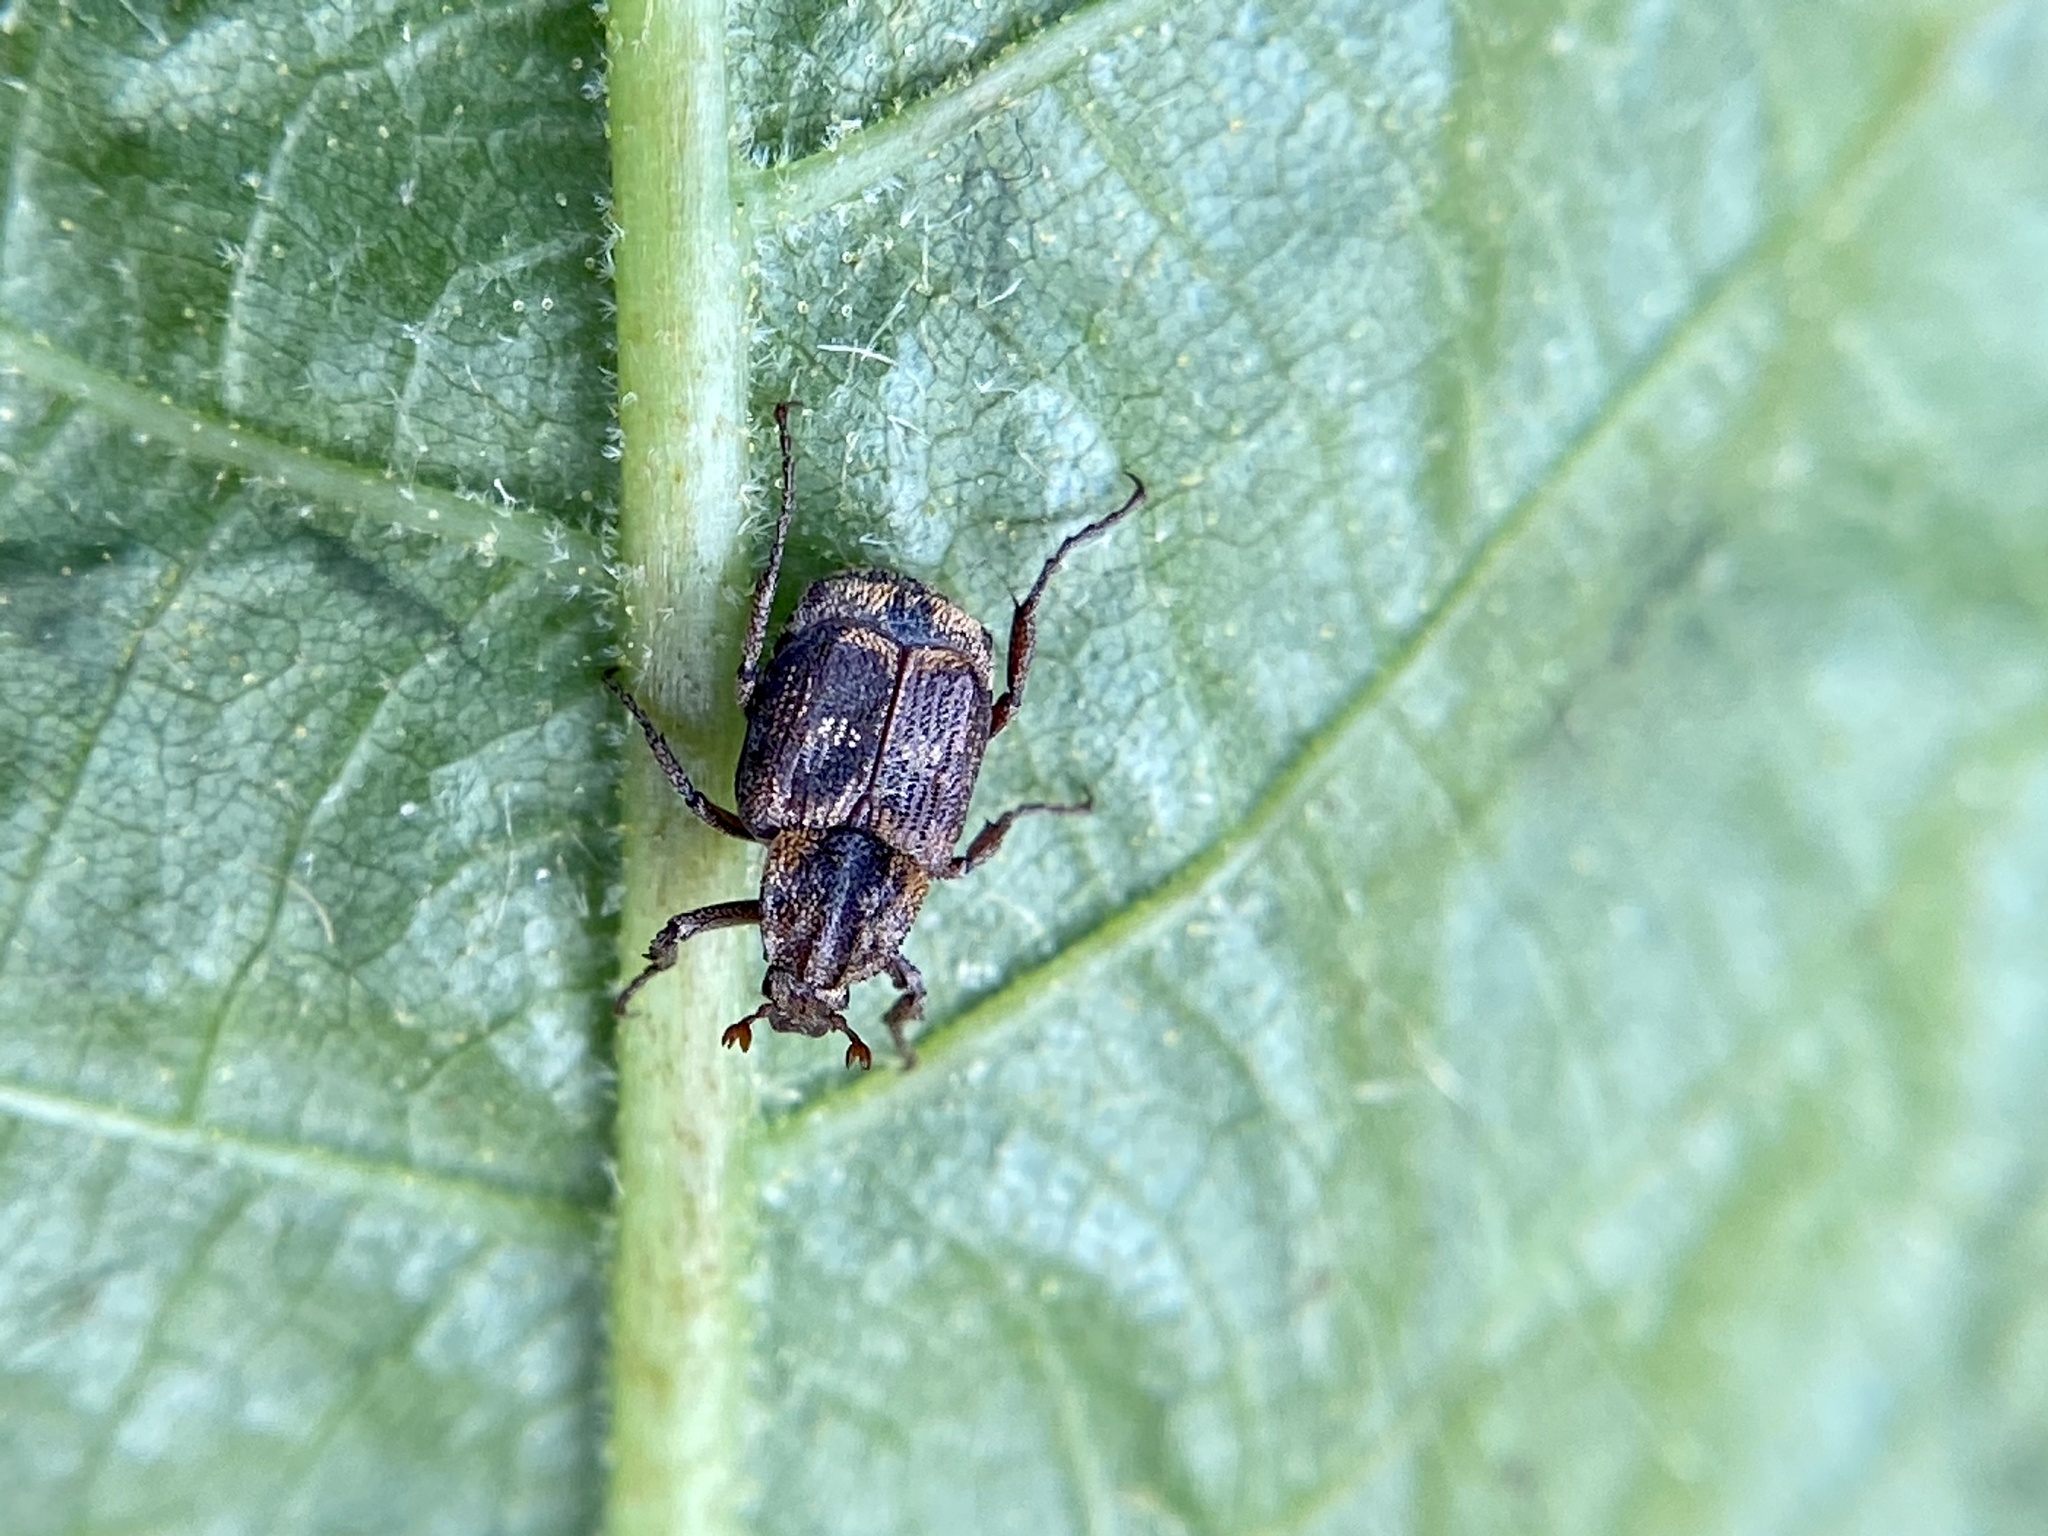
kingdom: Animalia
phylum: Arthropoda
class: Insecta
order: Coleoptera
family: Scarabaeidae
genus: Valgus
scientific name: Valgus canaliculatus
